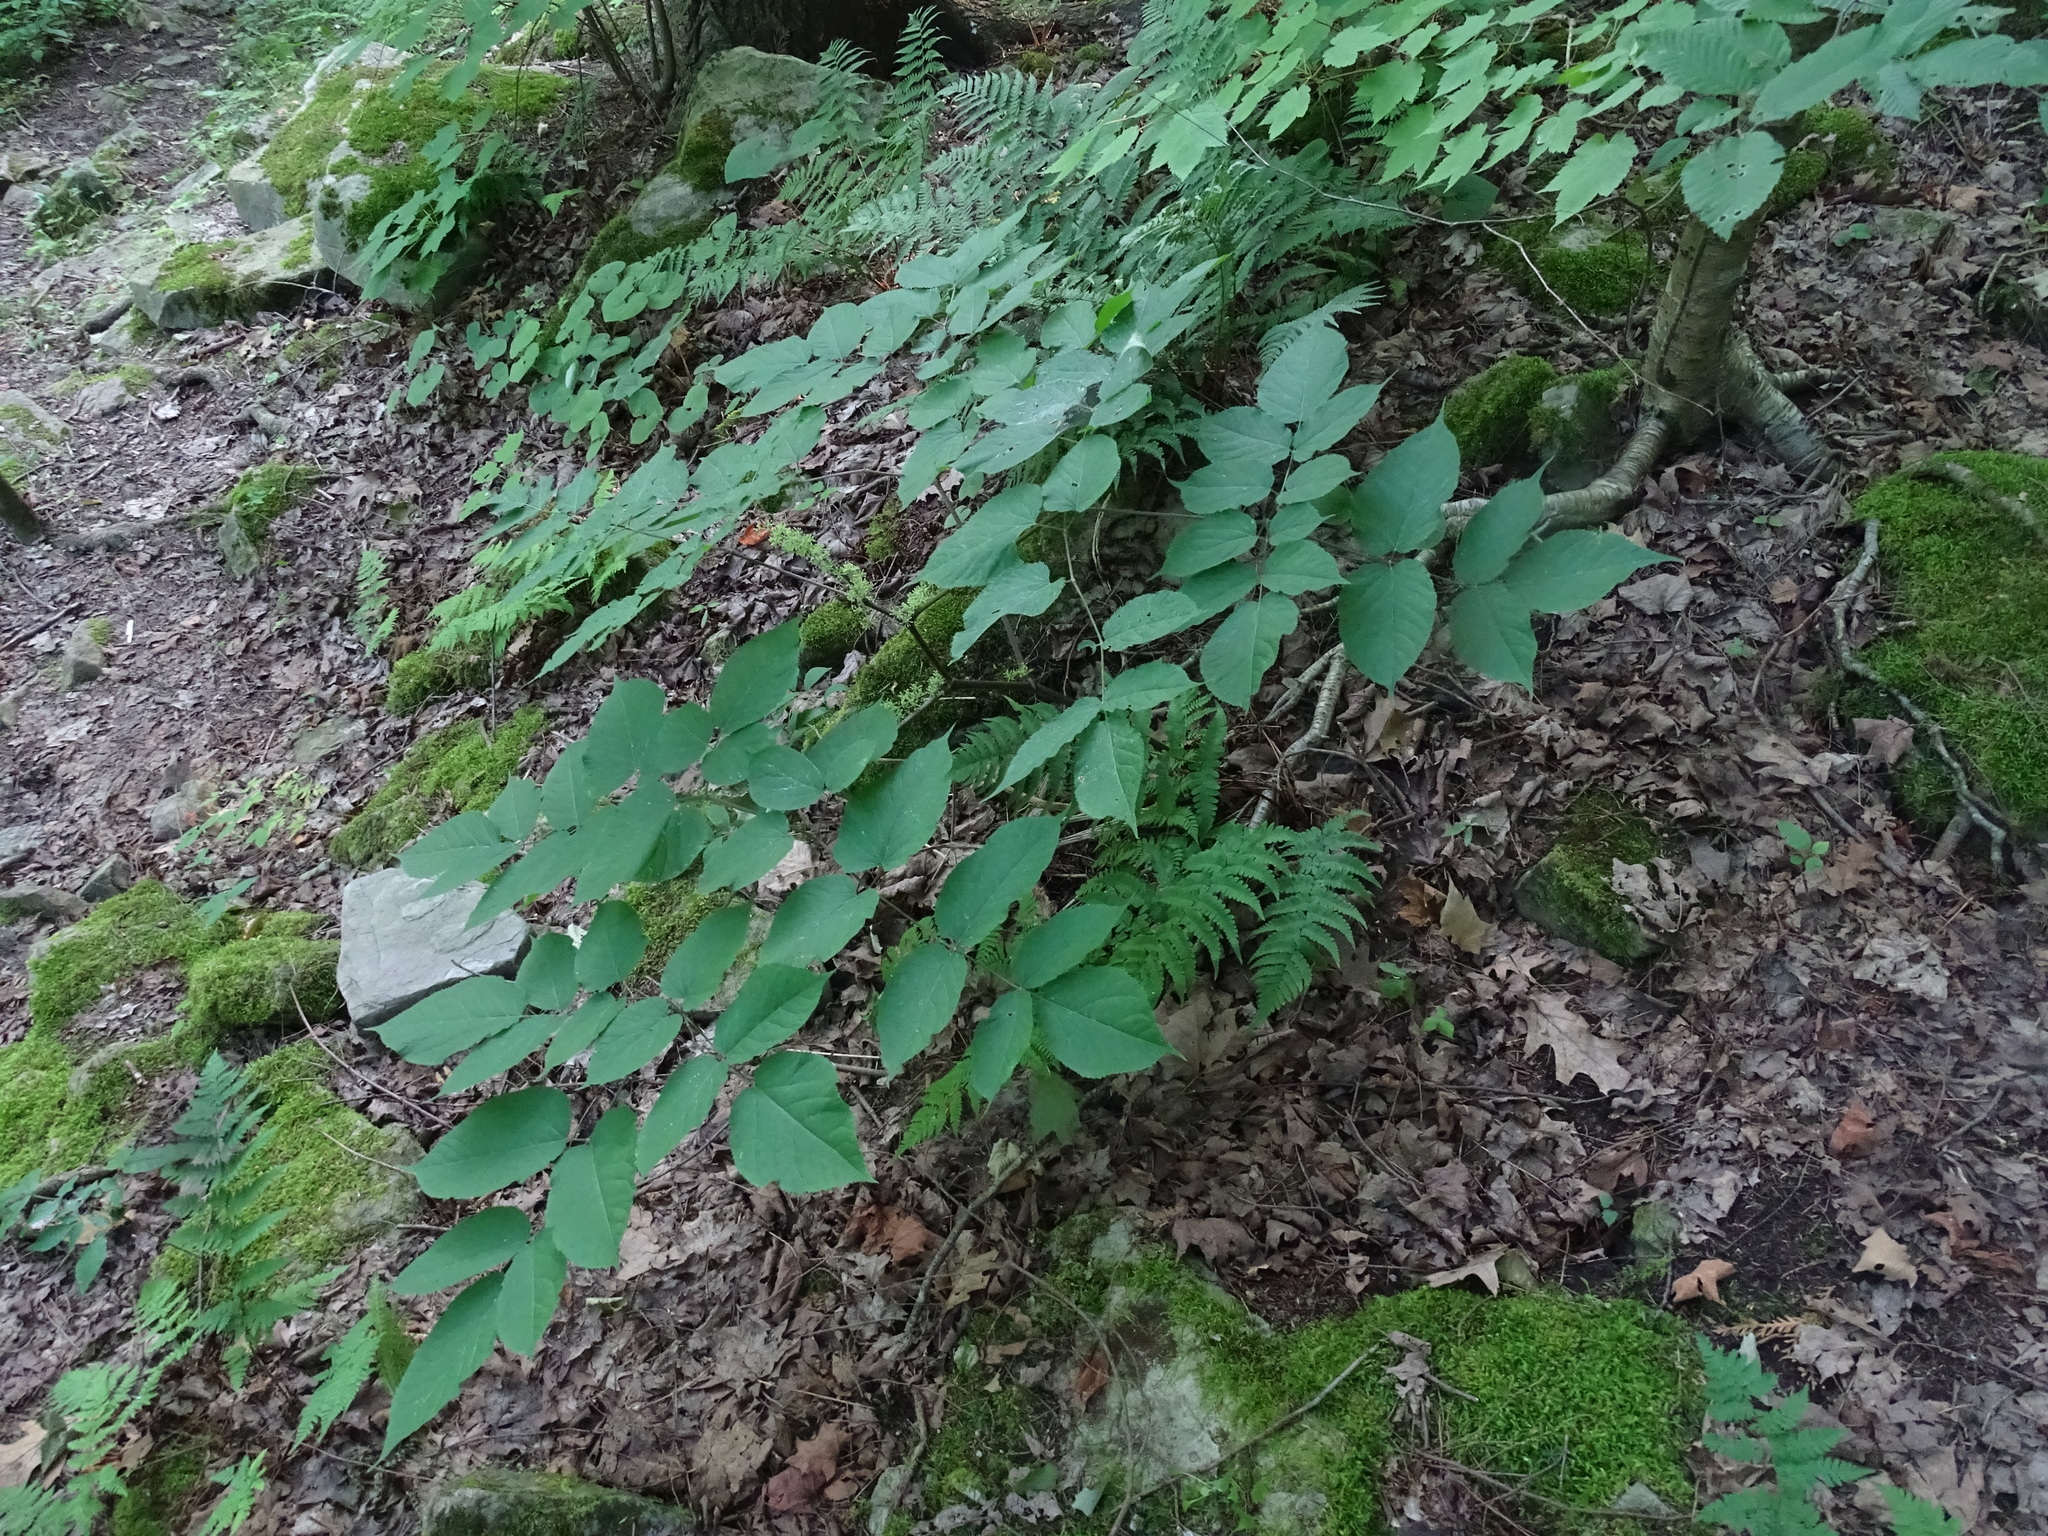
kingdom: Plantae
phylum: Tracheophyta
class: Magnoliopsida
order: Apiales
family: Araliaceae
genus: Aralia
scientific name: Aralia racemosa
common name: American-spikenard
